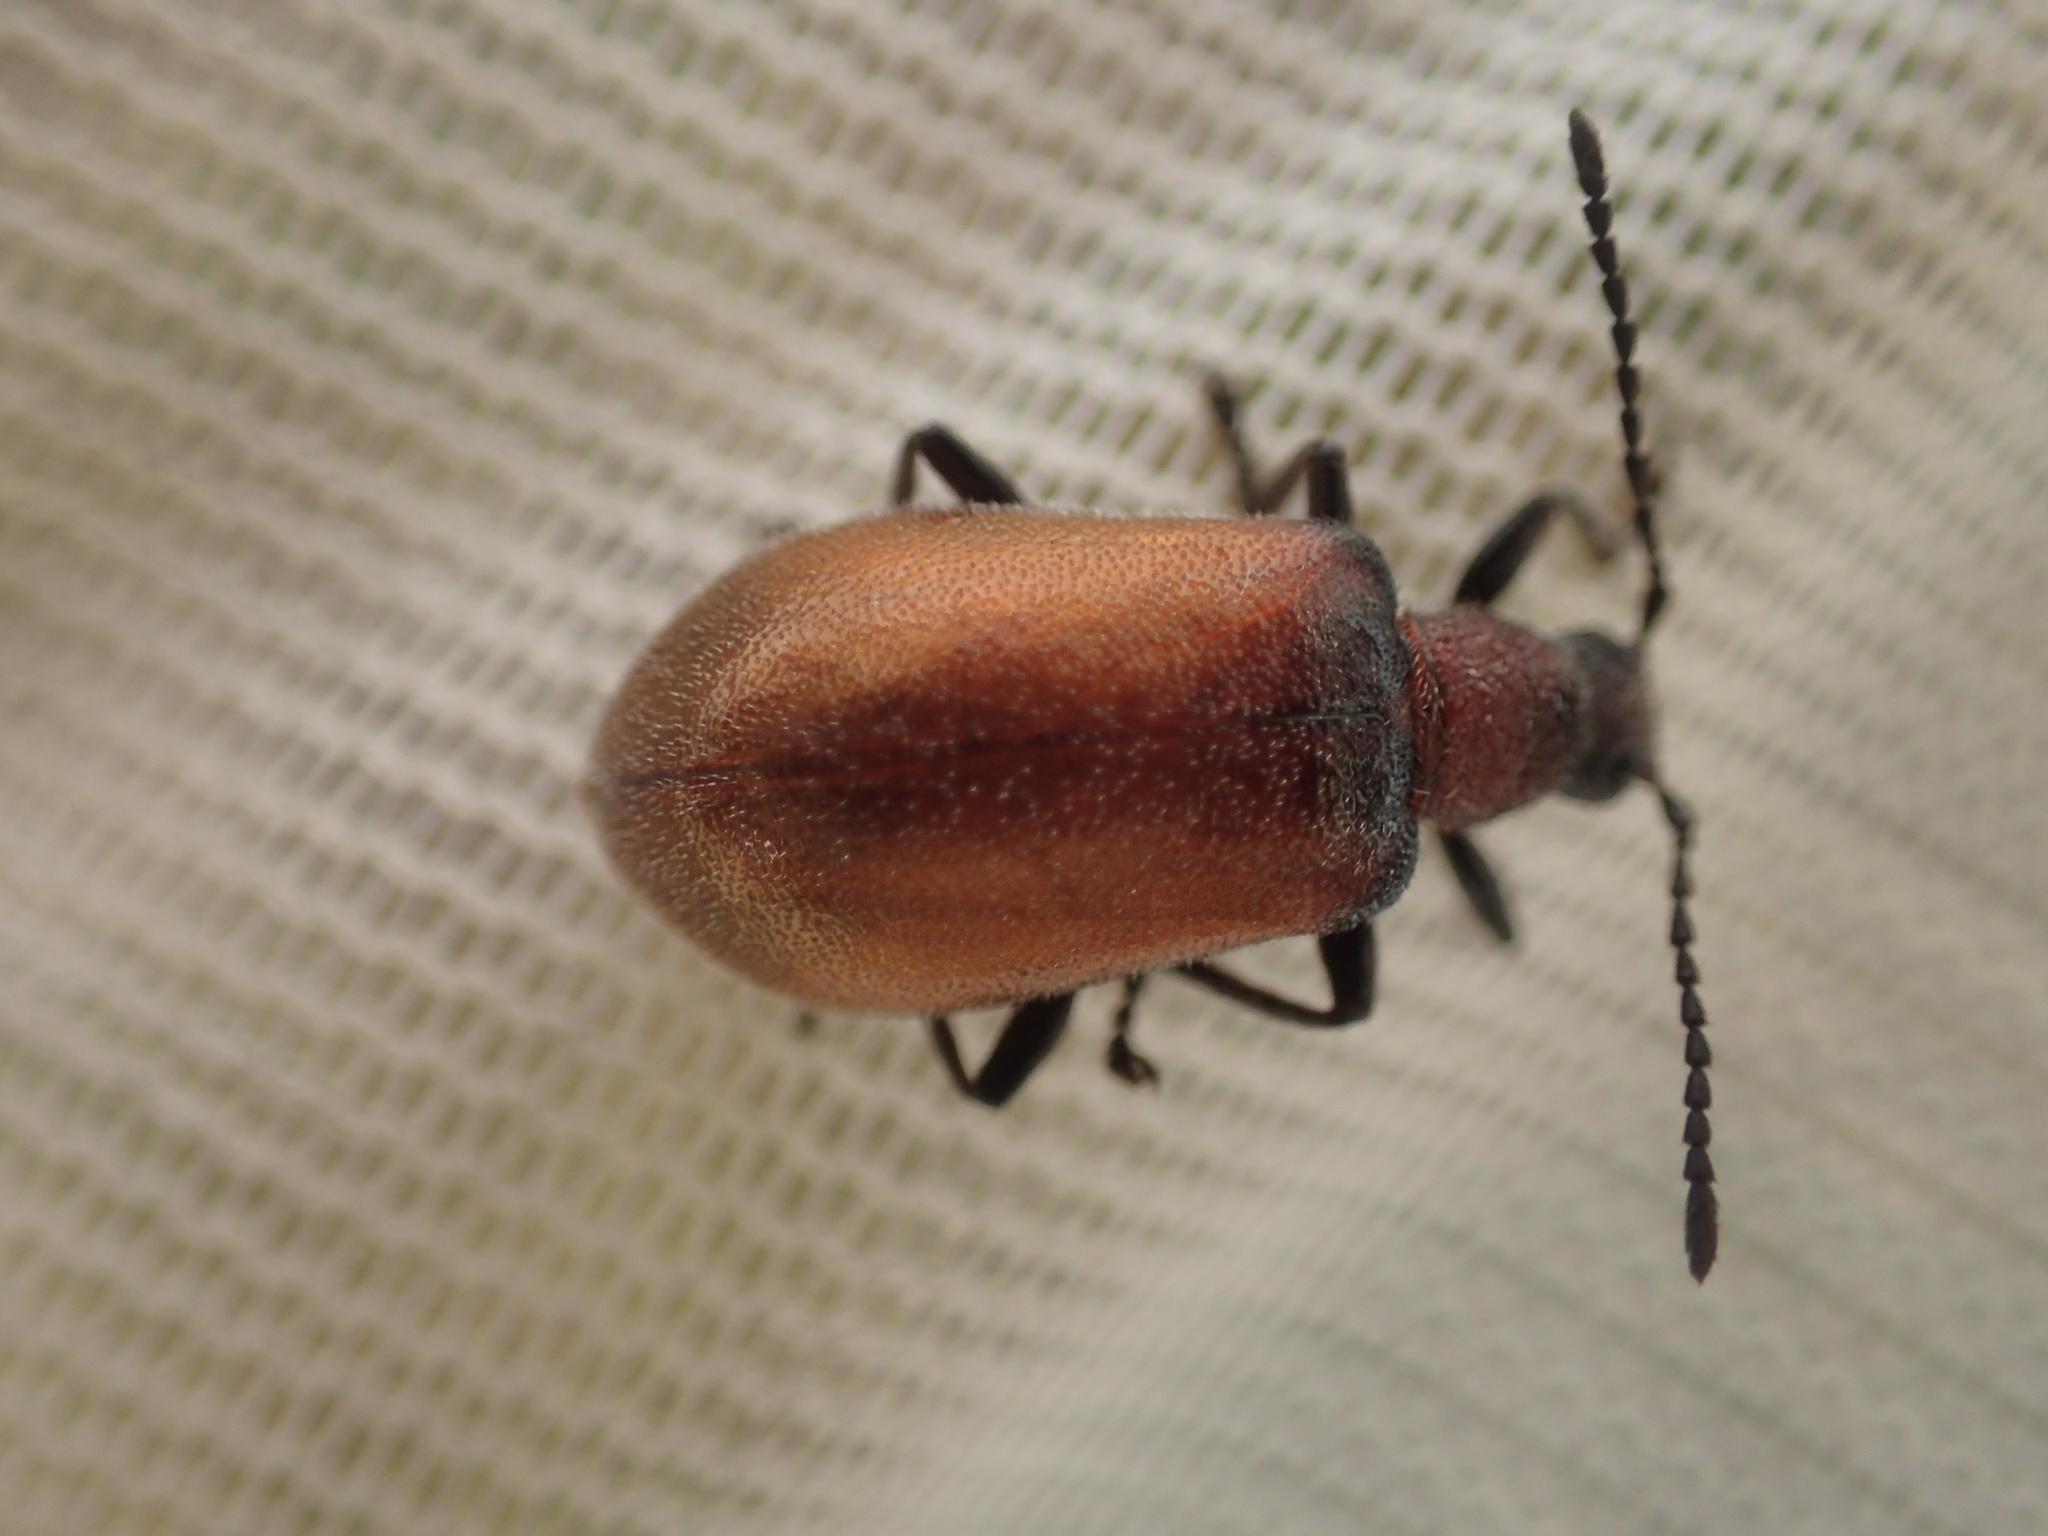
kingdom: Animalia
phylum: Arthropoda
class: Insecta
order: Coleoptera
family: Tenebrionidae
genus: Ecnolagria
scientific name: Ecnolagria
